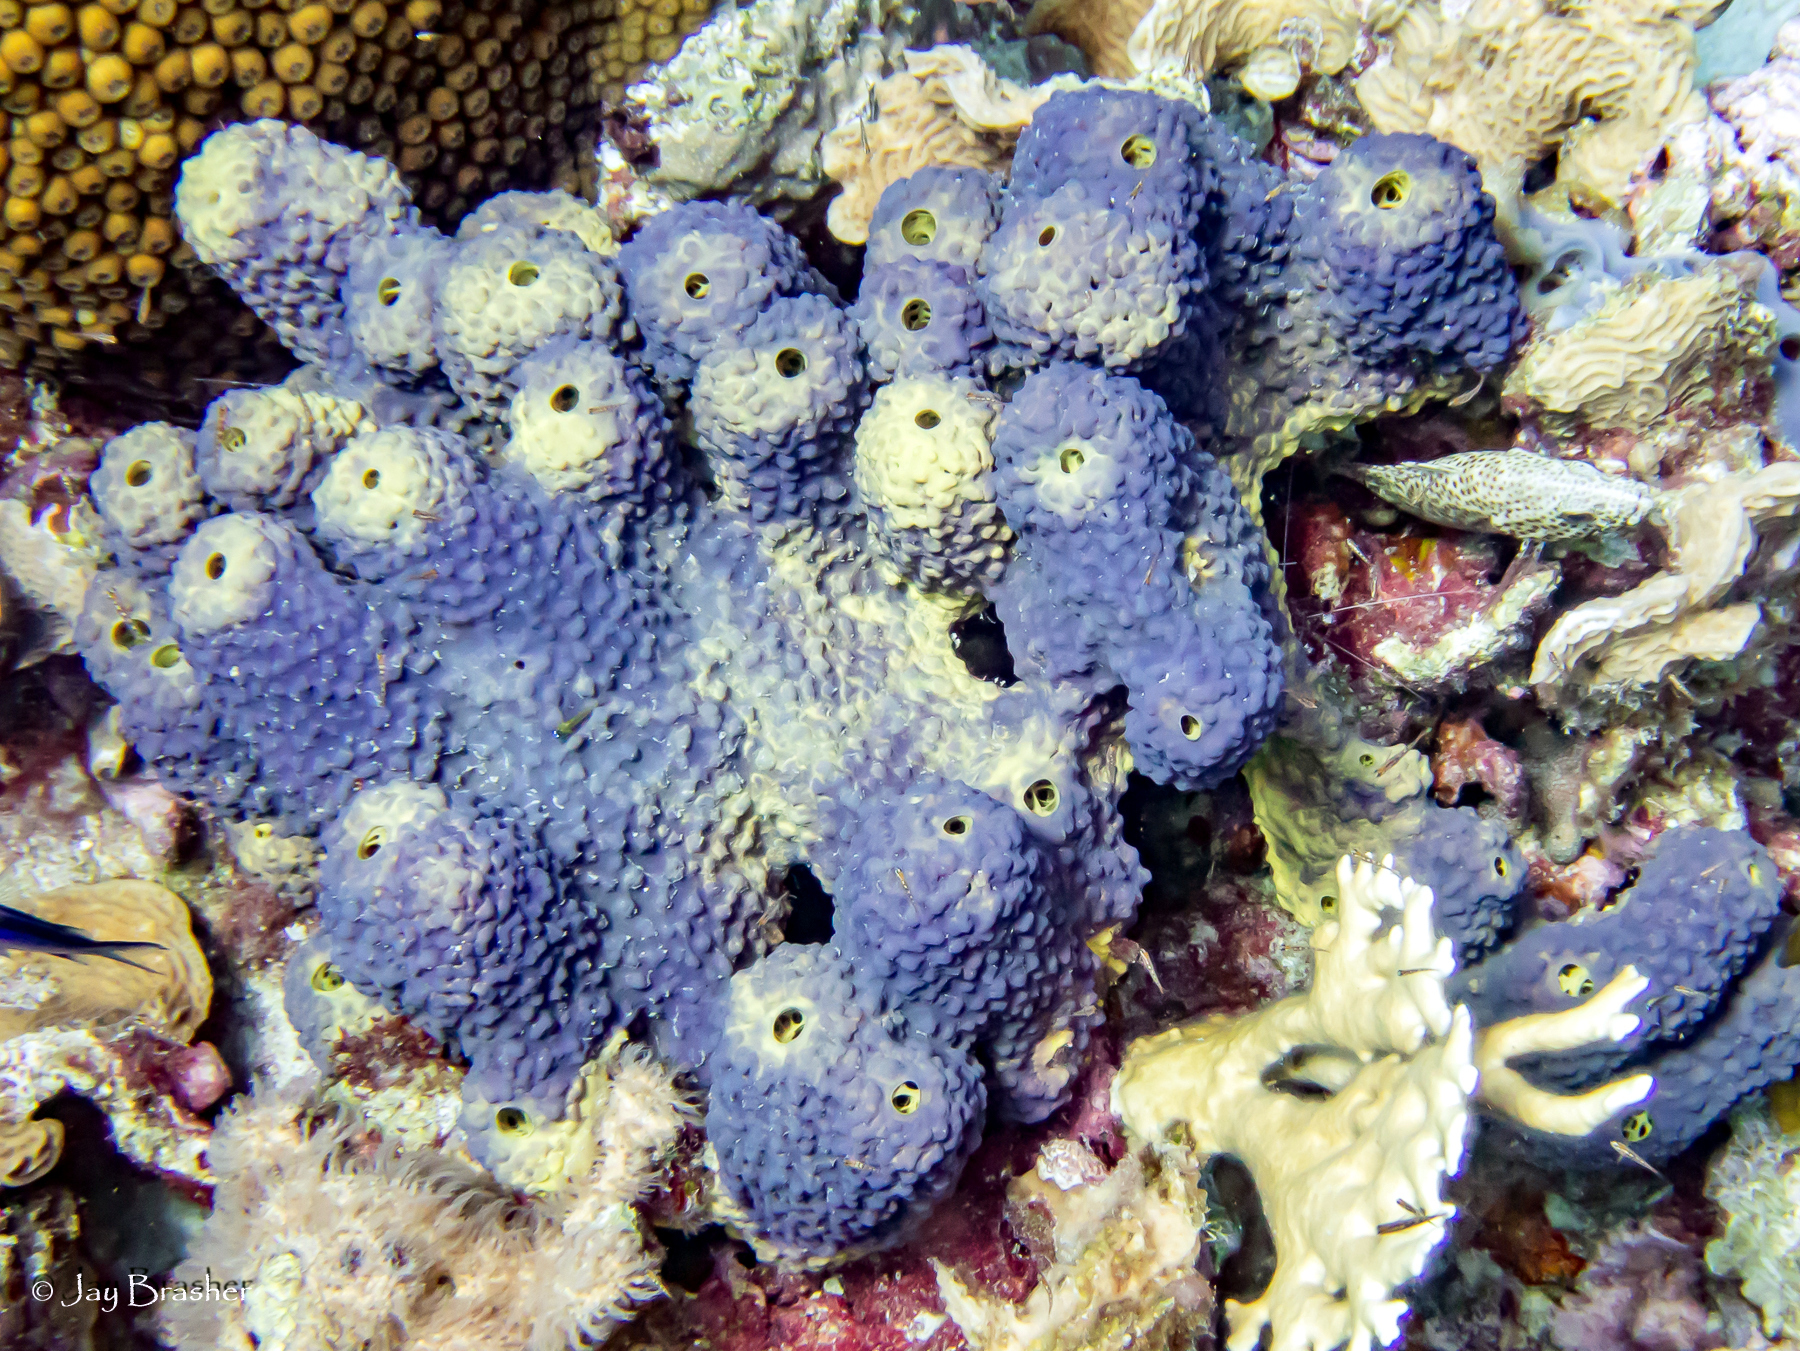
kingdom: Animalia
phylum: Porifera
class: Demospongiae
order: Verongiida
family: Aplysinidae
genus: Aiolochroia
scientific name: Aiolochroia crassa
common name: Branching tube sponge
